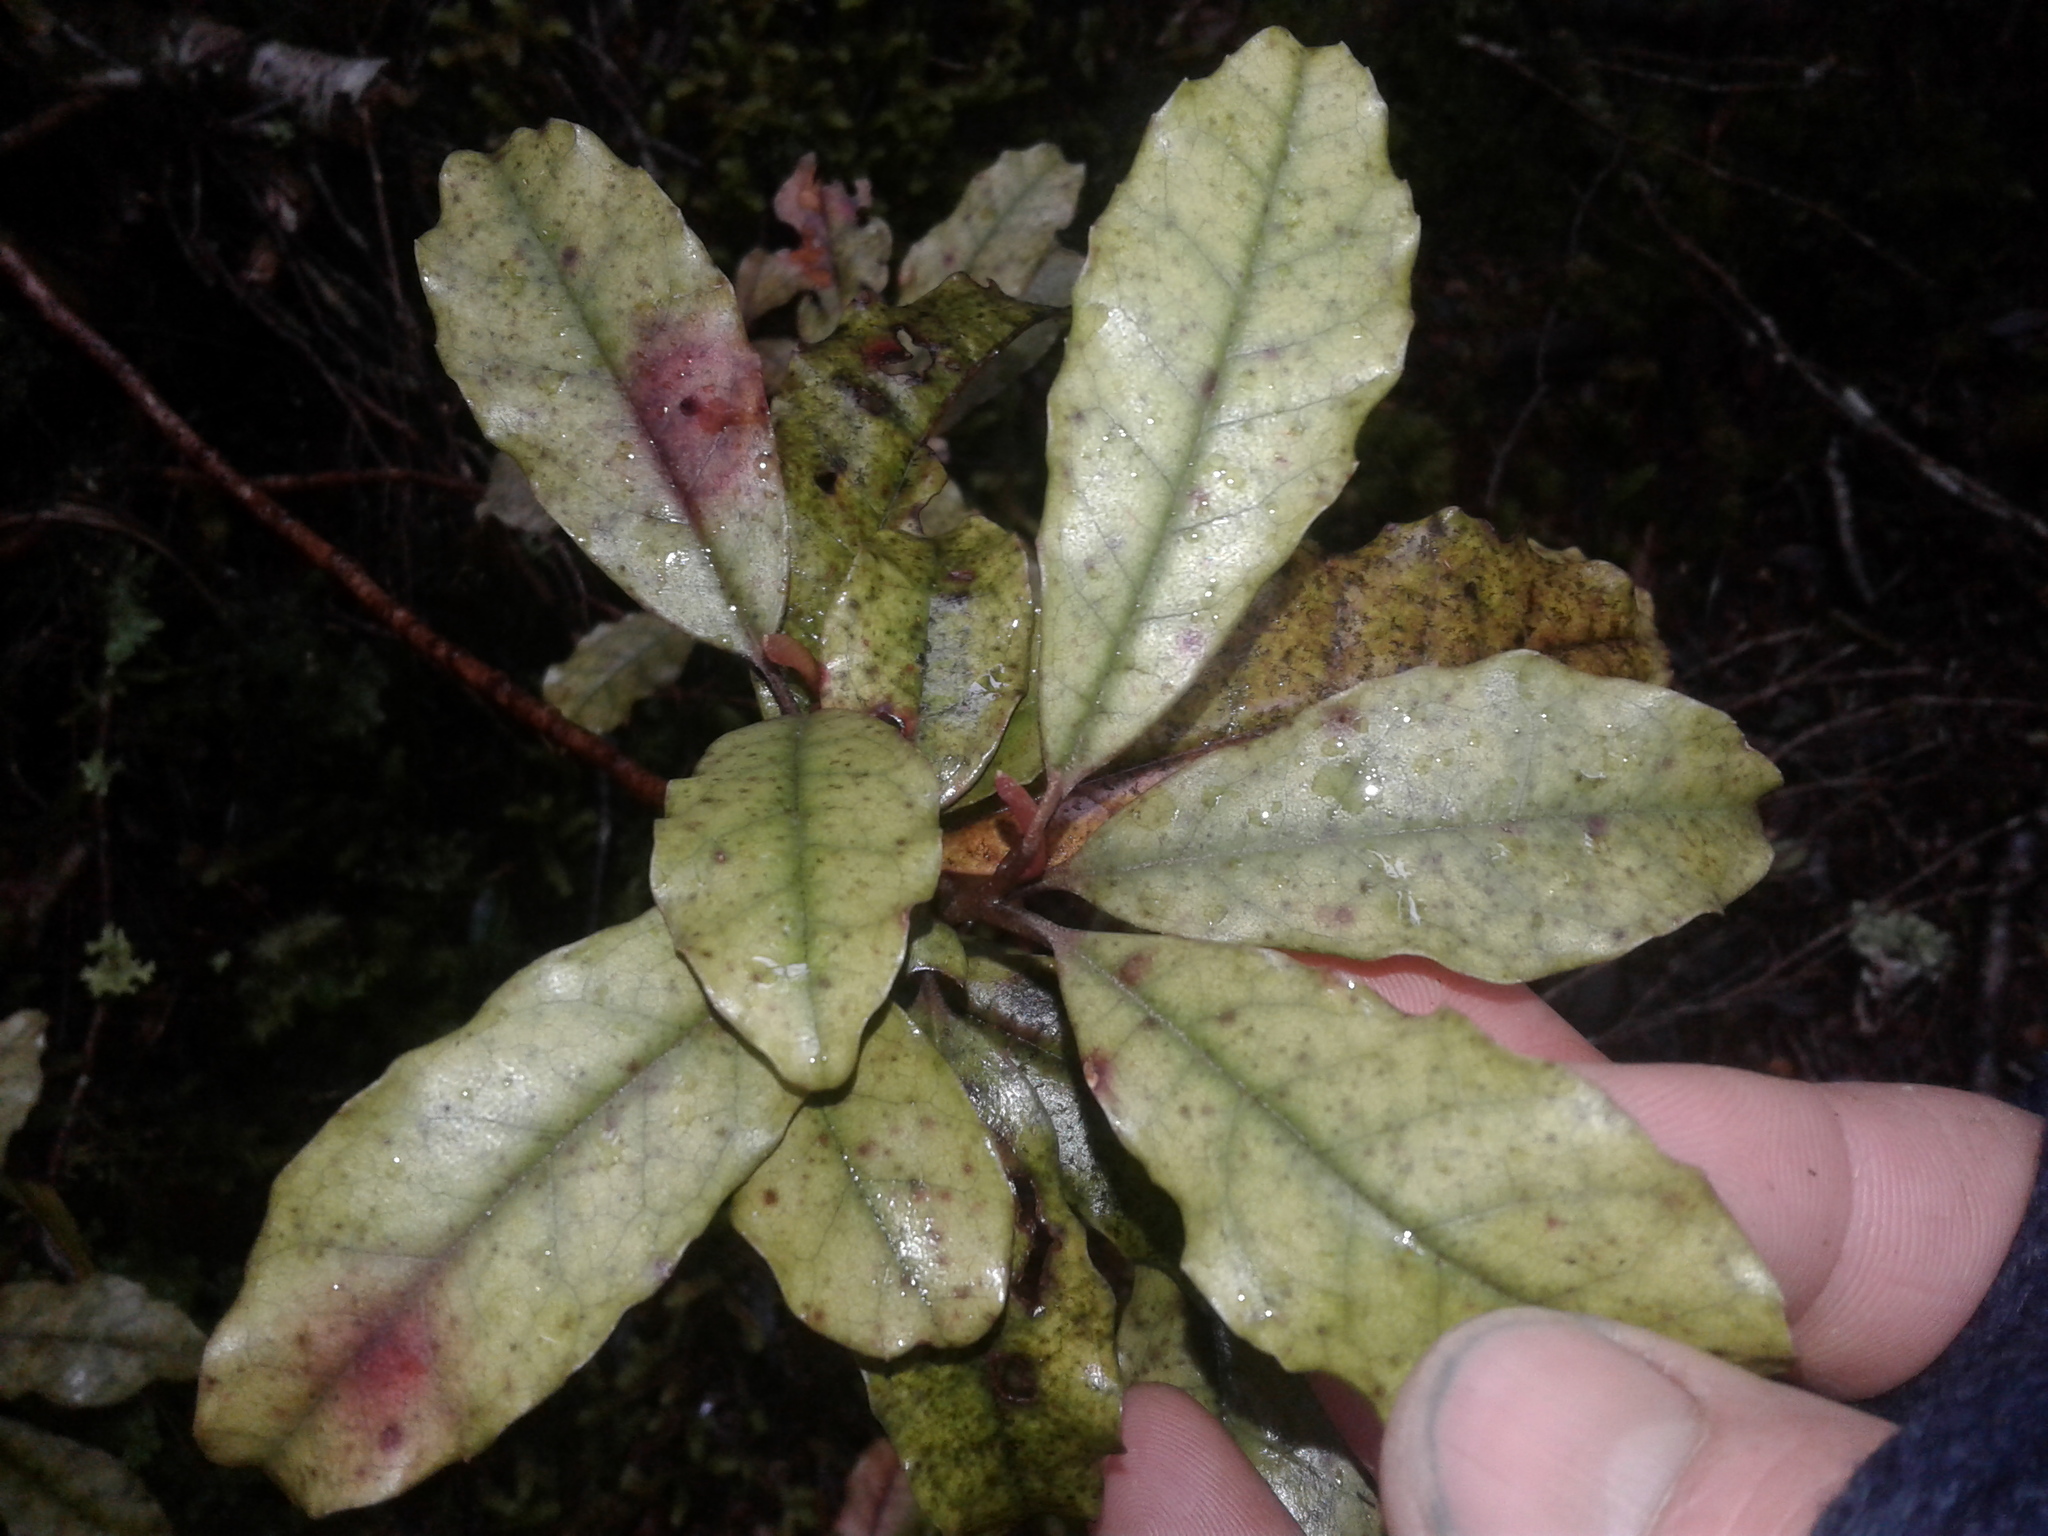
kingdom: Plantae
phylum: Tracheophyta
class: Magnoliopsida
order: Paracryphiales
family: Paracryphiaceae
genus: Quintinia
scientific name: Quintinia serrata
